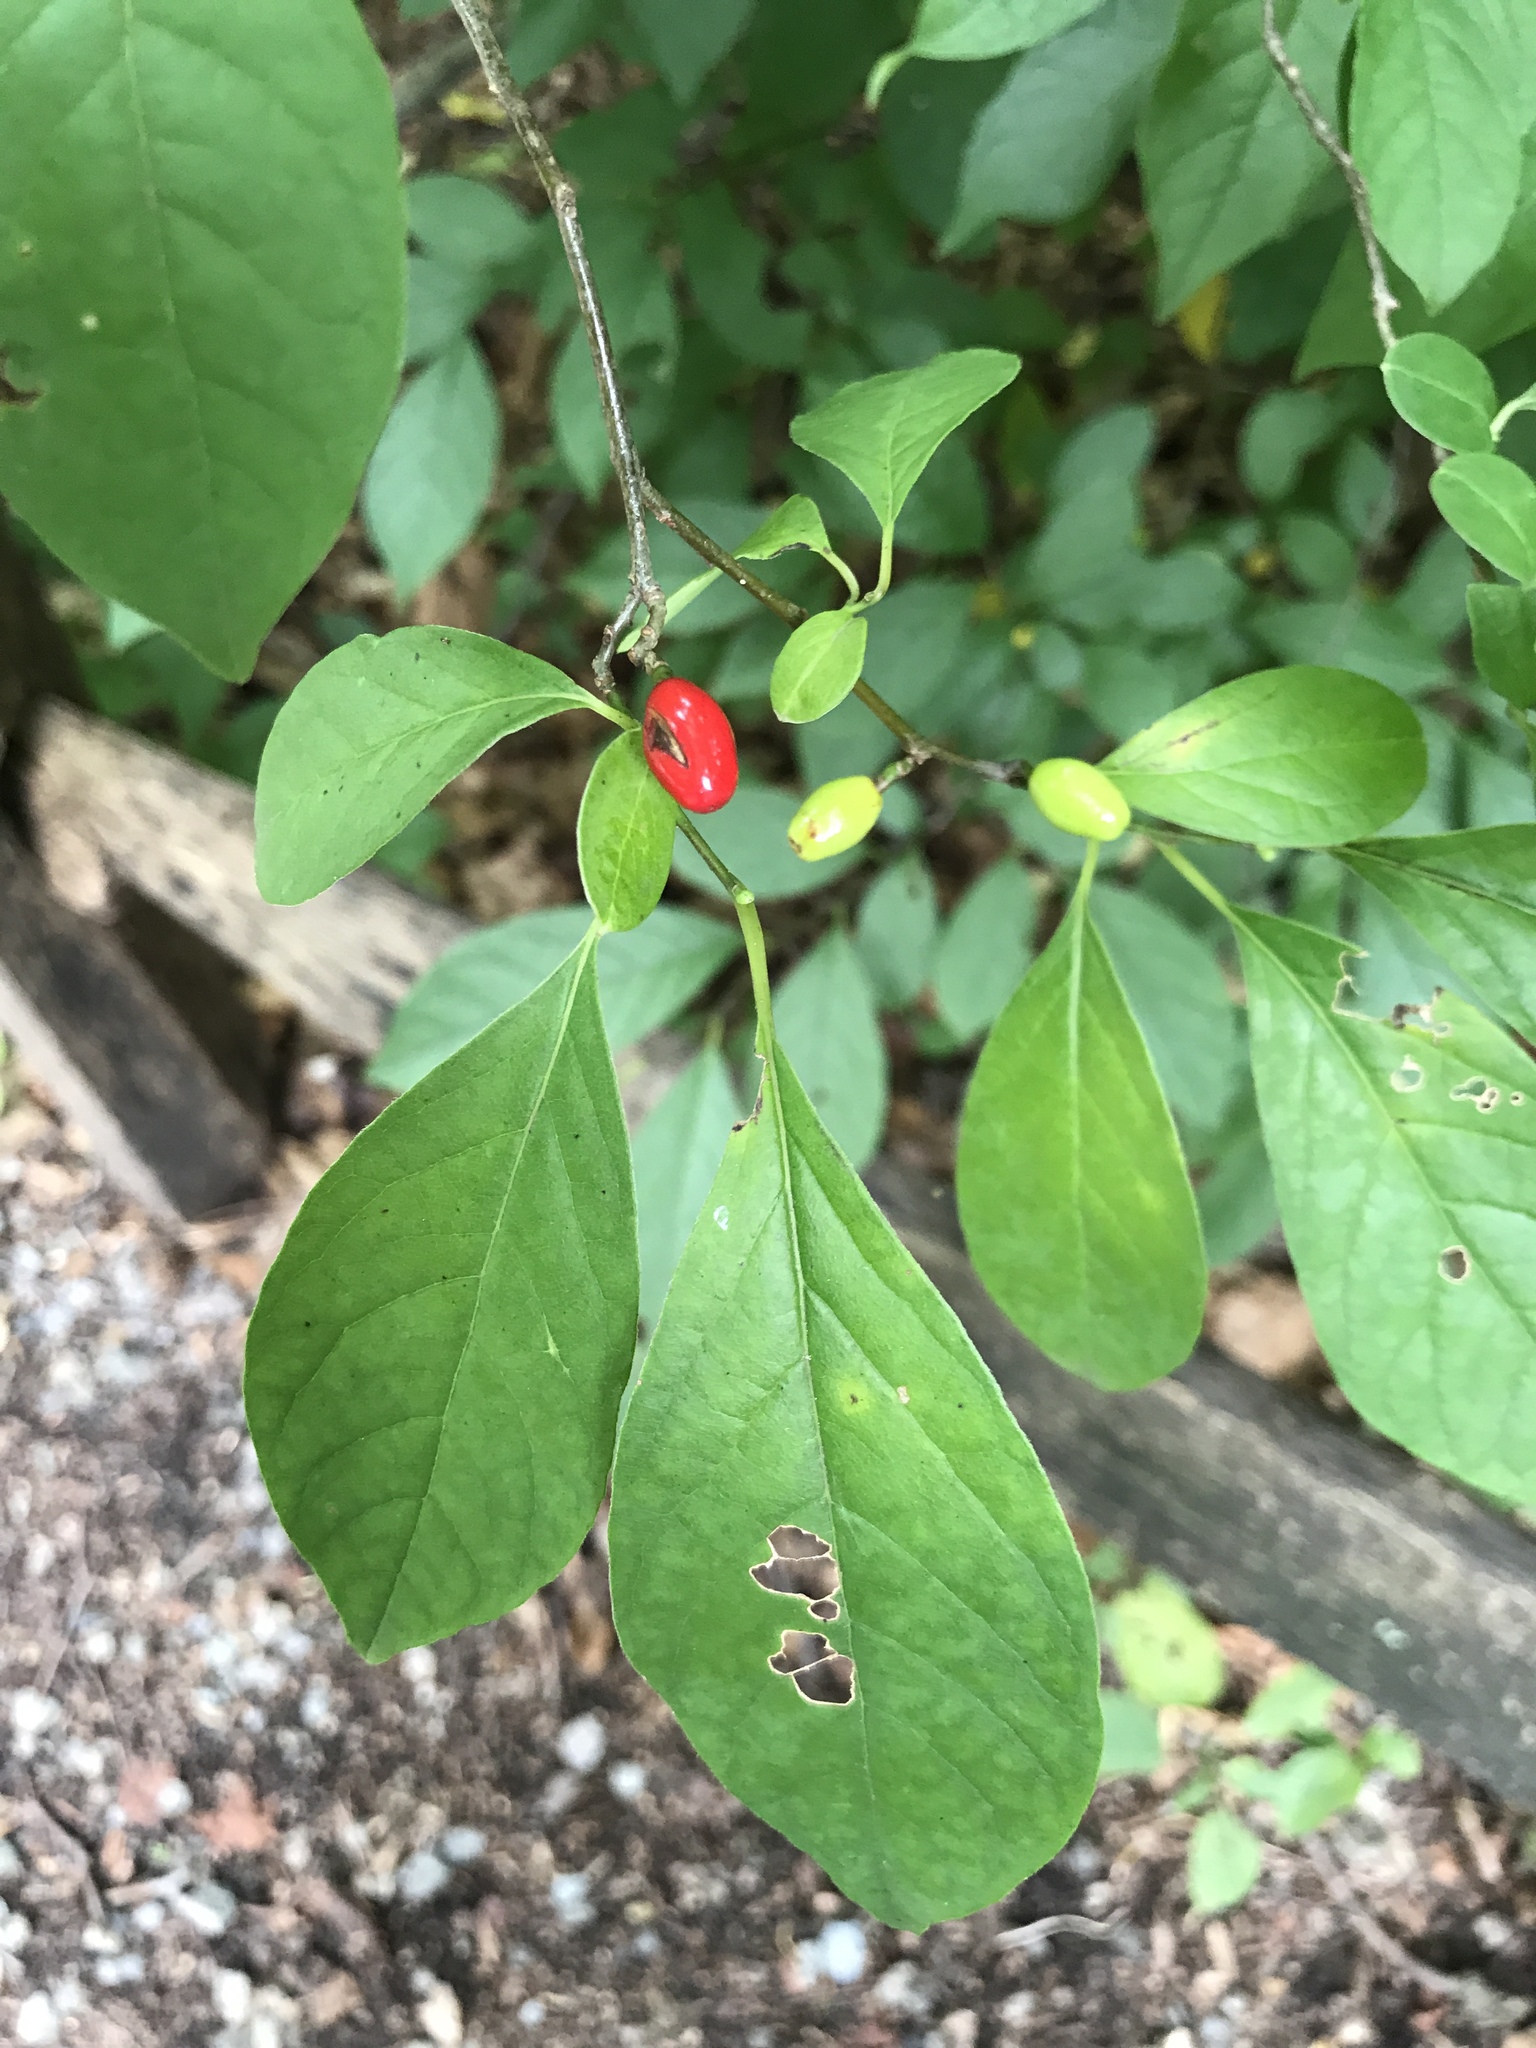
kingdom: Plantae
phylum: Tracheophyta
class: Magnoliopsida
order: Laurales
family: Lauraceae
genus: Lindera
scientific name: Lindera benzoin
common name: Spicebush
